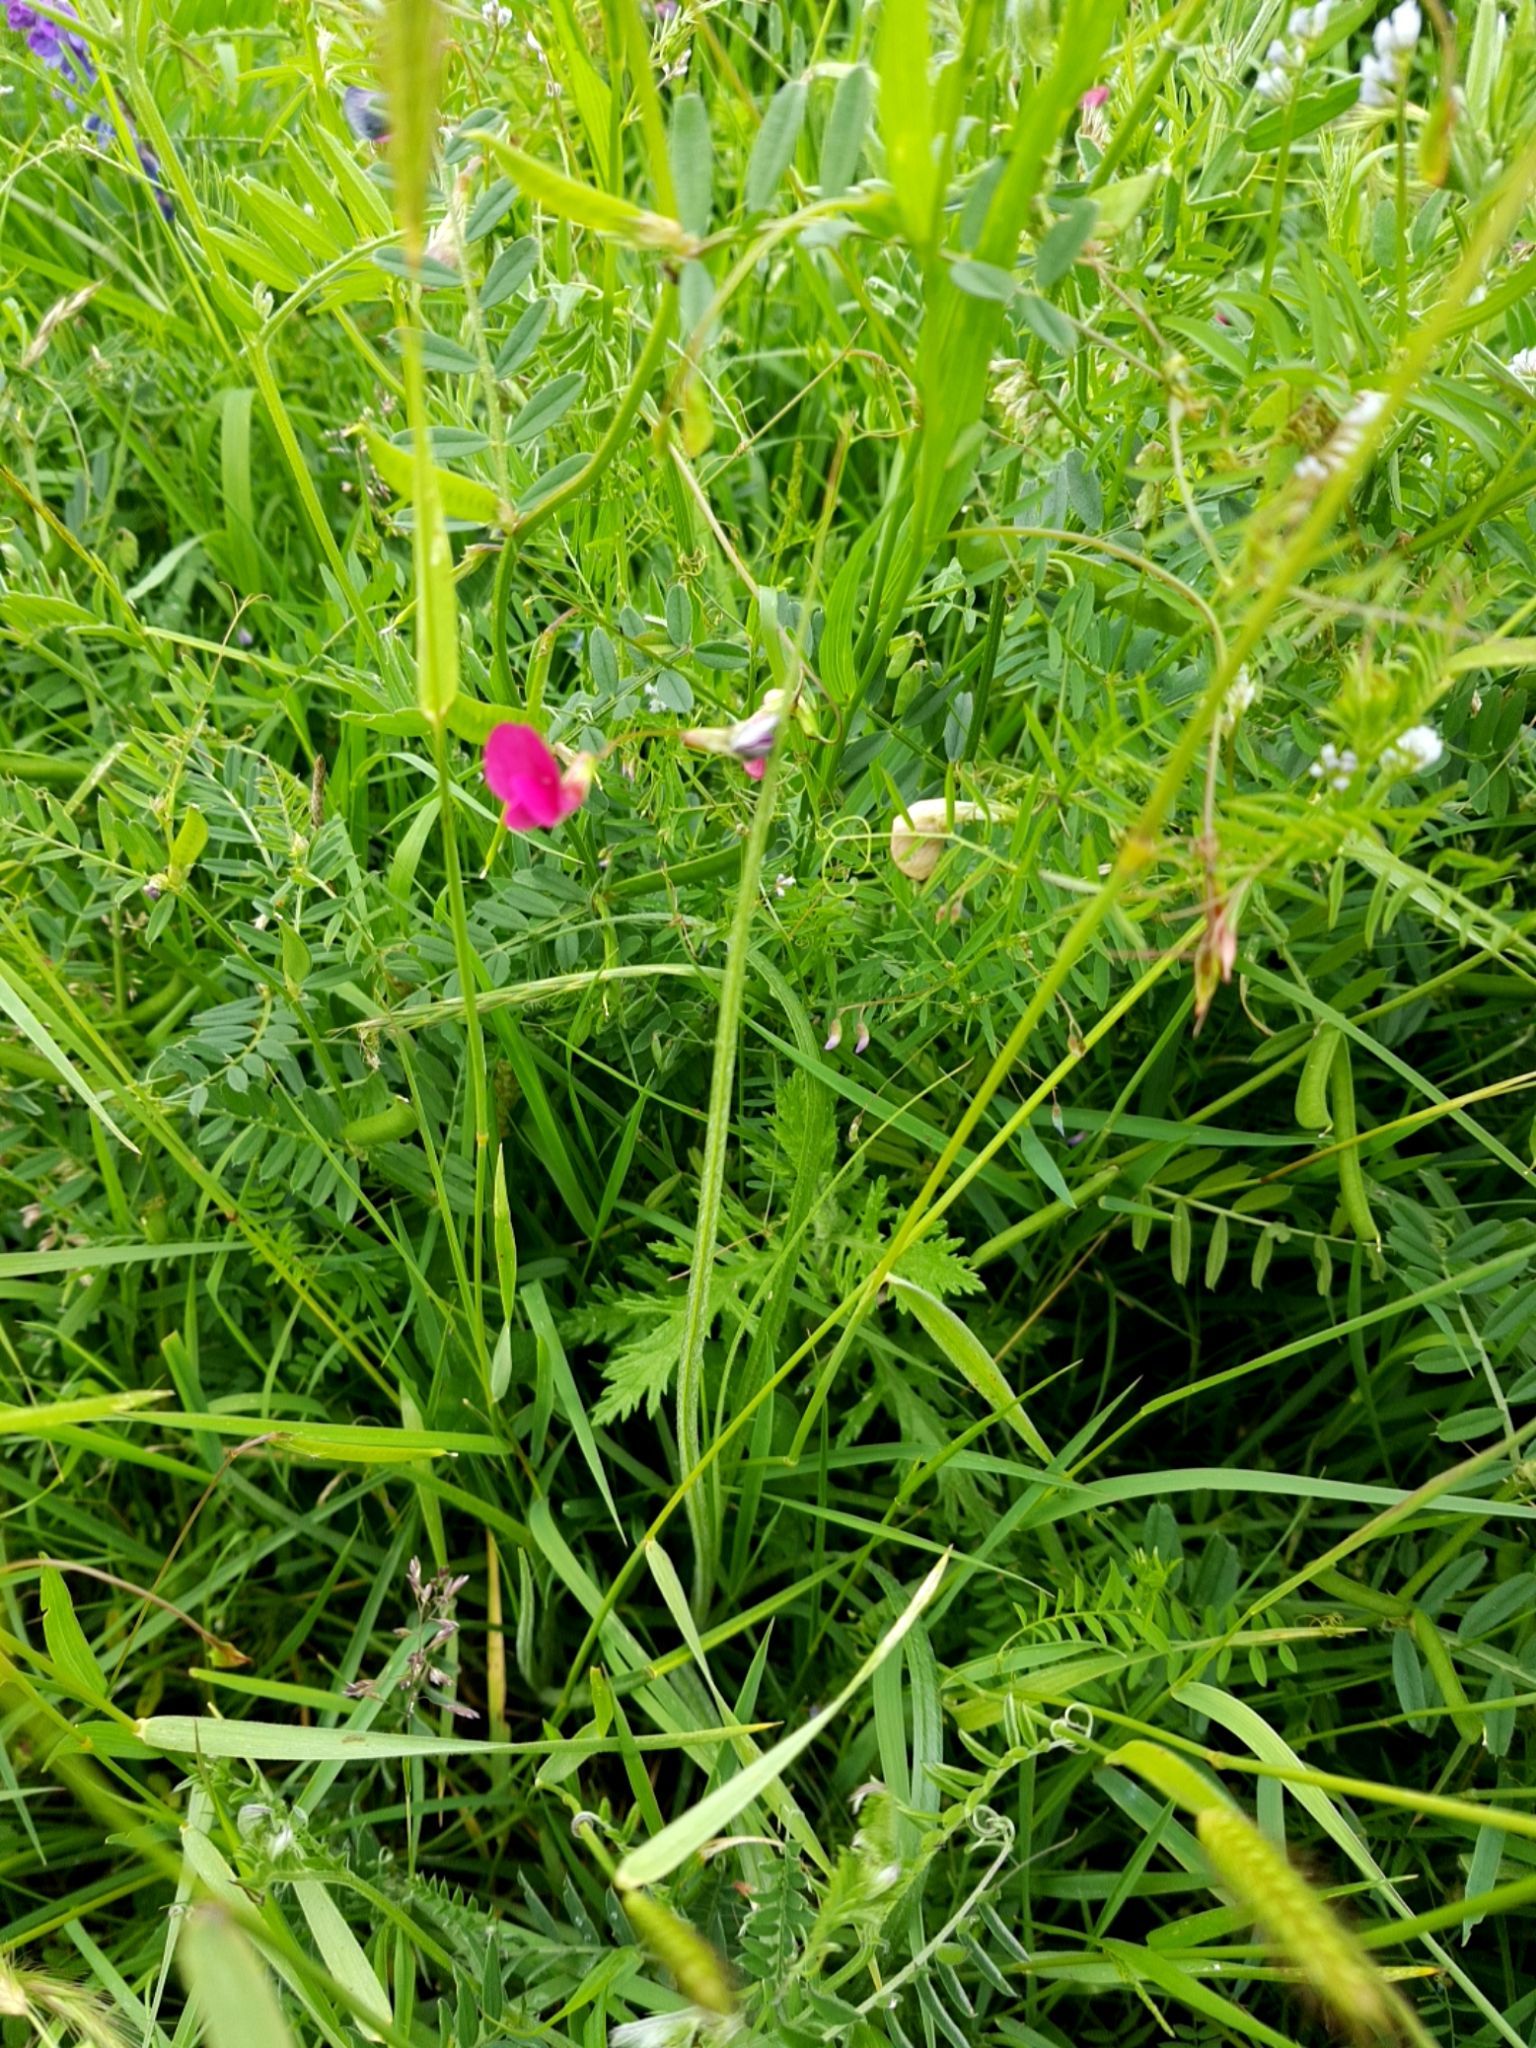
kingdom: Plantae
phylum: Tracheophyta
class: Magnoliopsida
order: Fabales
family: Fabaceae
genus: Vicia
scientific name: Vicia sativa
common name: Garden vetch
